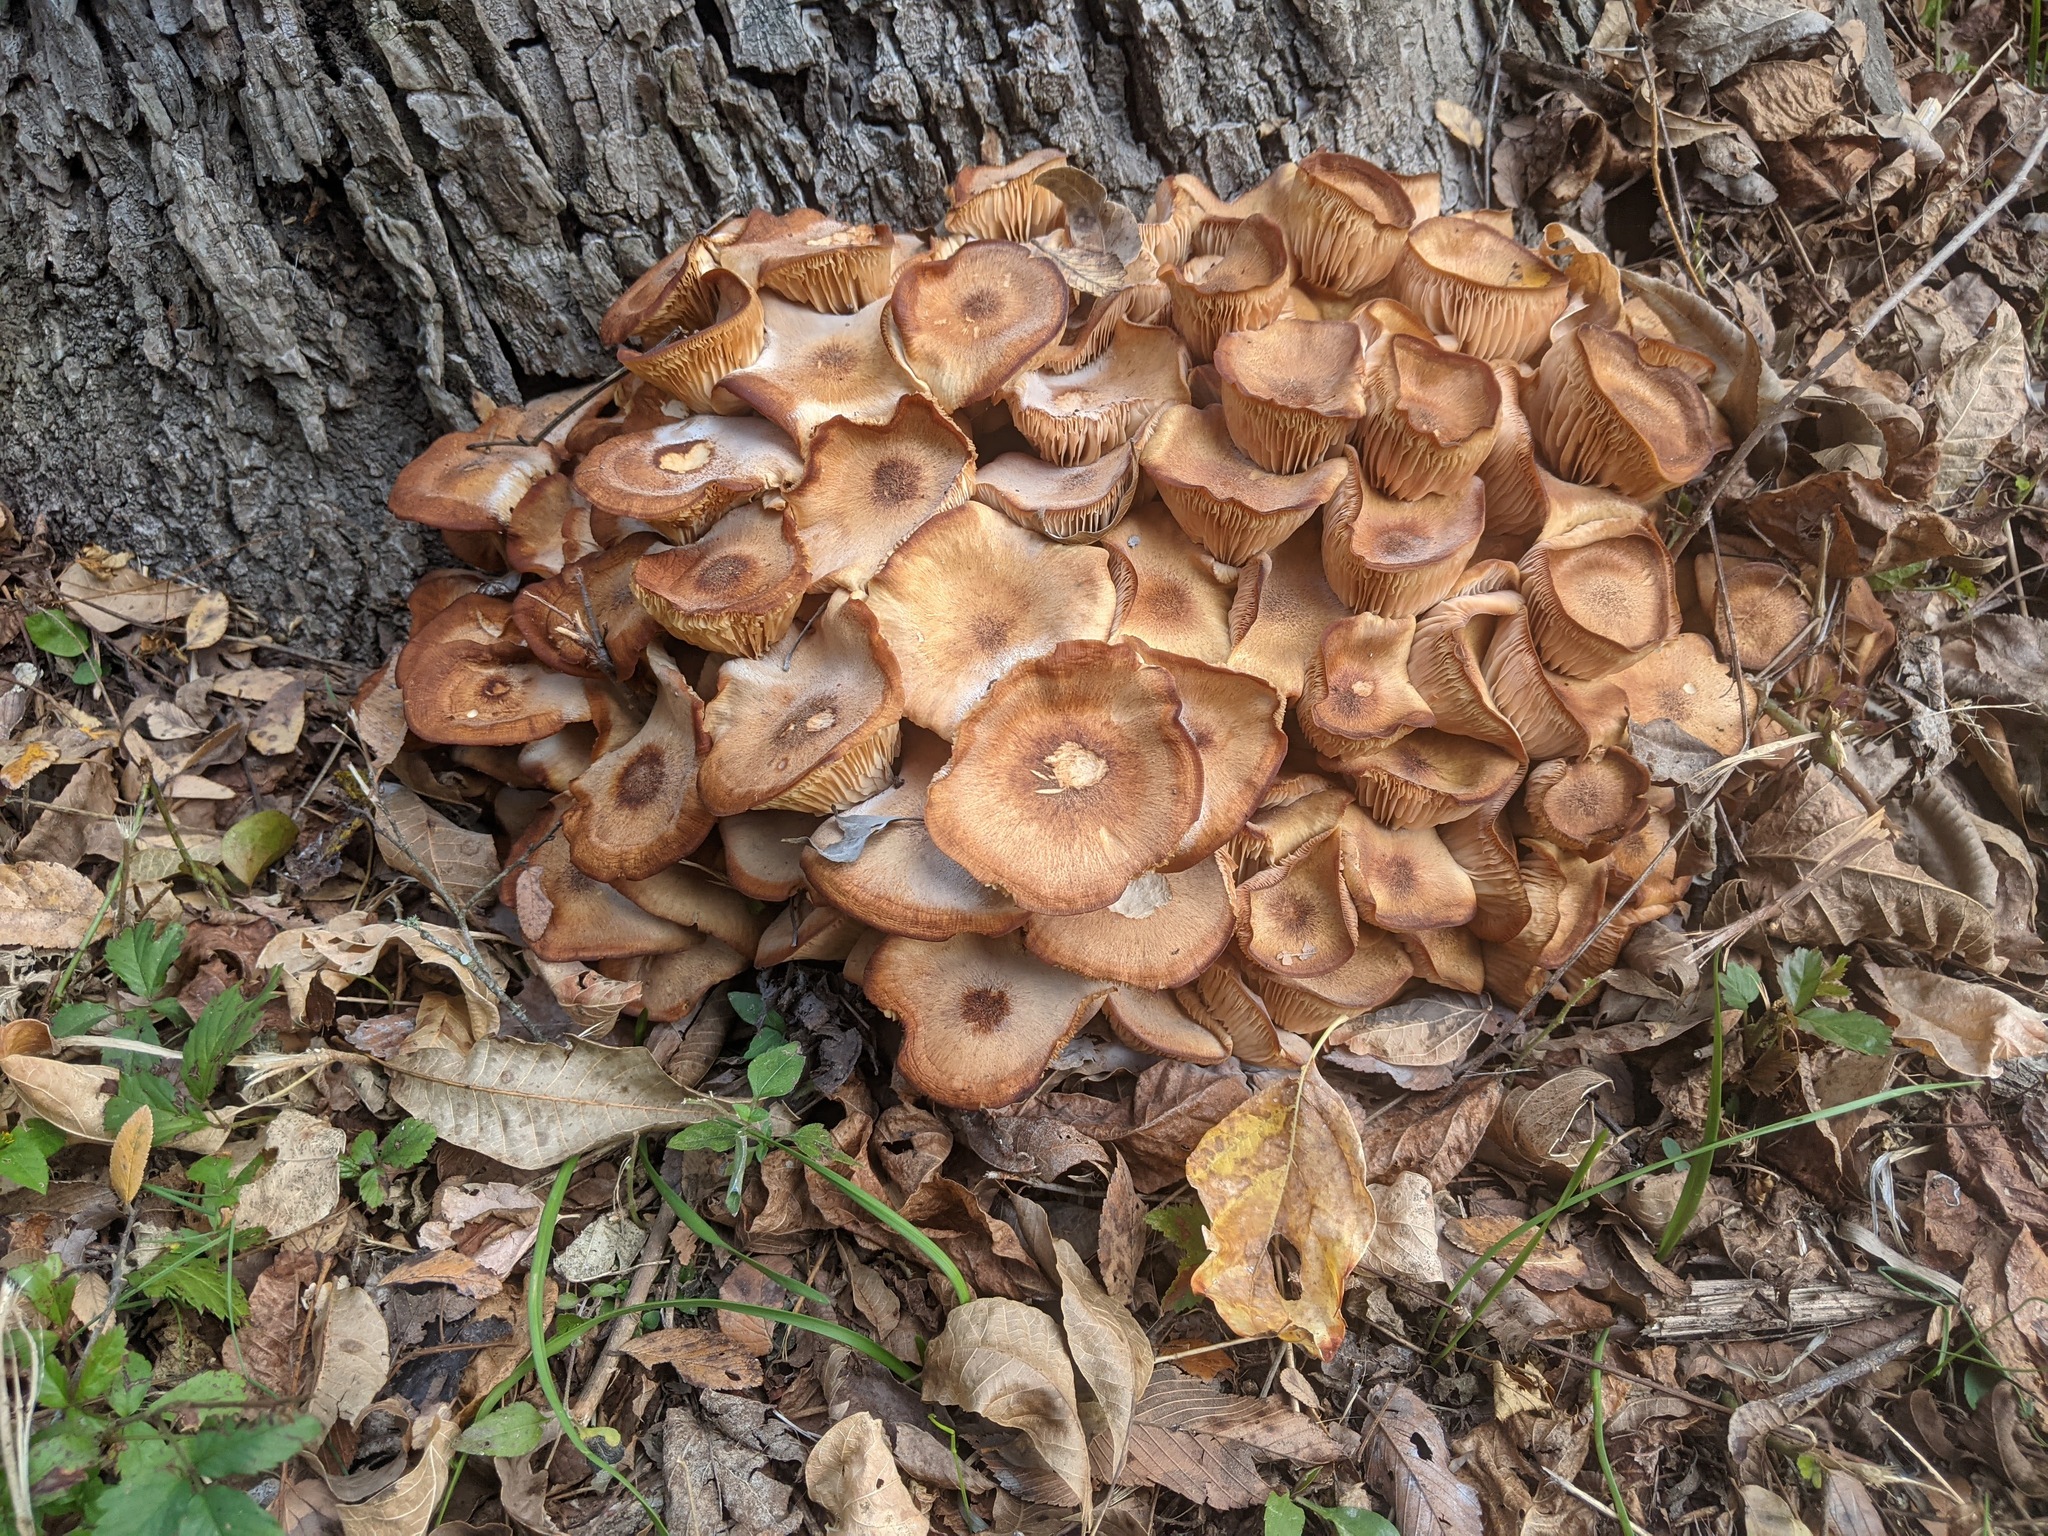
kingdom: Fungi
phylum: Basidiomycota
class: Agaricomycetes
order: Agaricales
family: Physalacriaceae
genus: Desarmillaria
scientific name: Desarmillaria caespitosa
